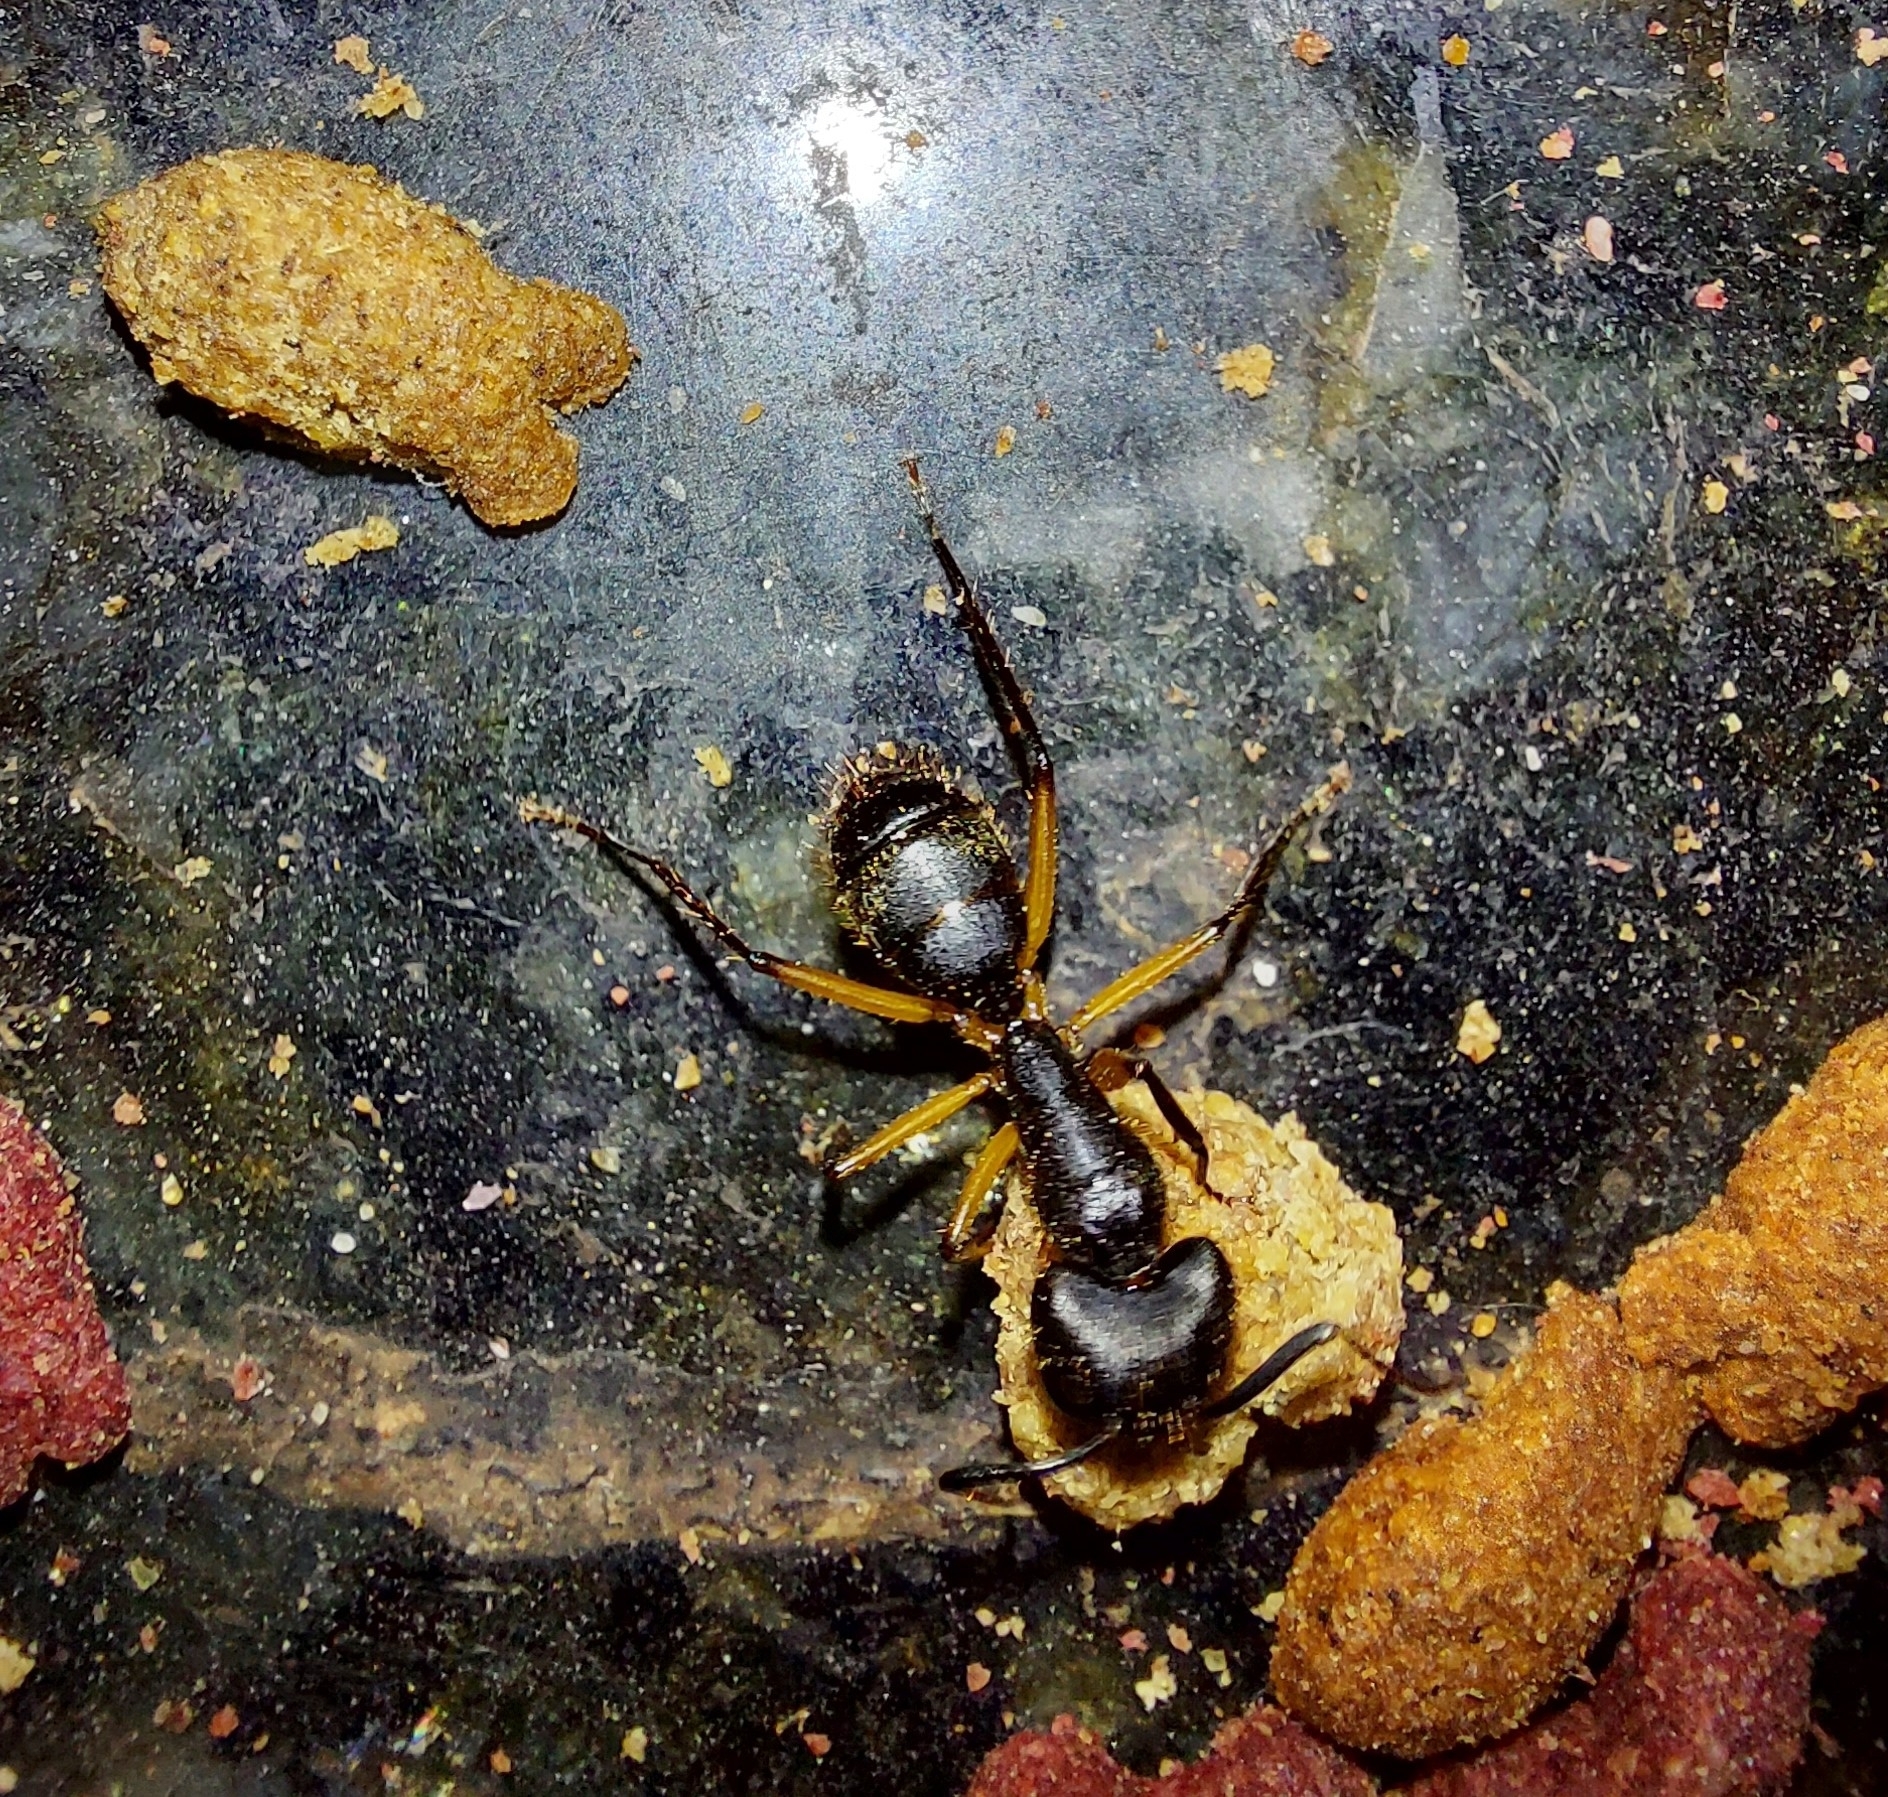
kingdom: Animalia
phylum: Arthropoda
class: Insecta
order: Hymenoptera
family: Formicidae
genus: Camponotus
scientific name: Camponotus renggeri
